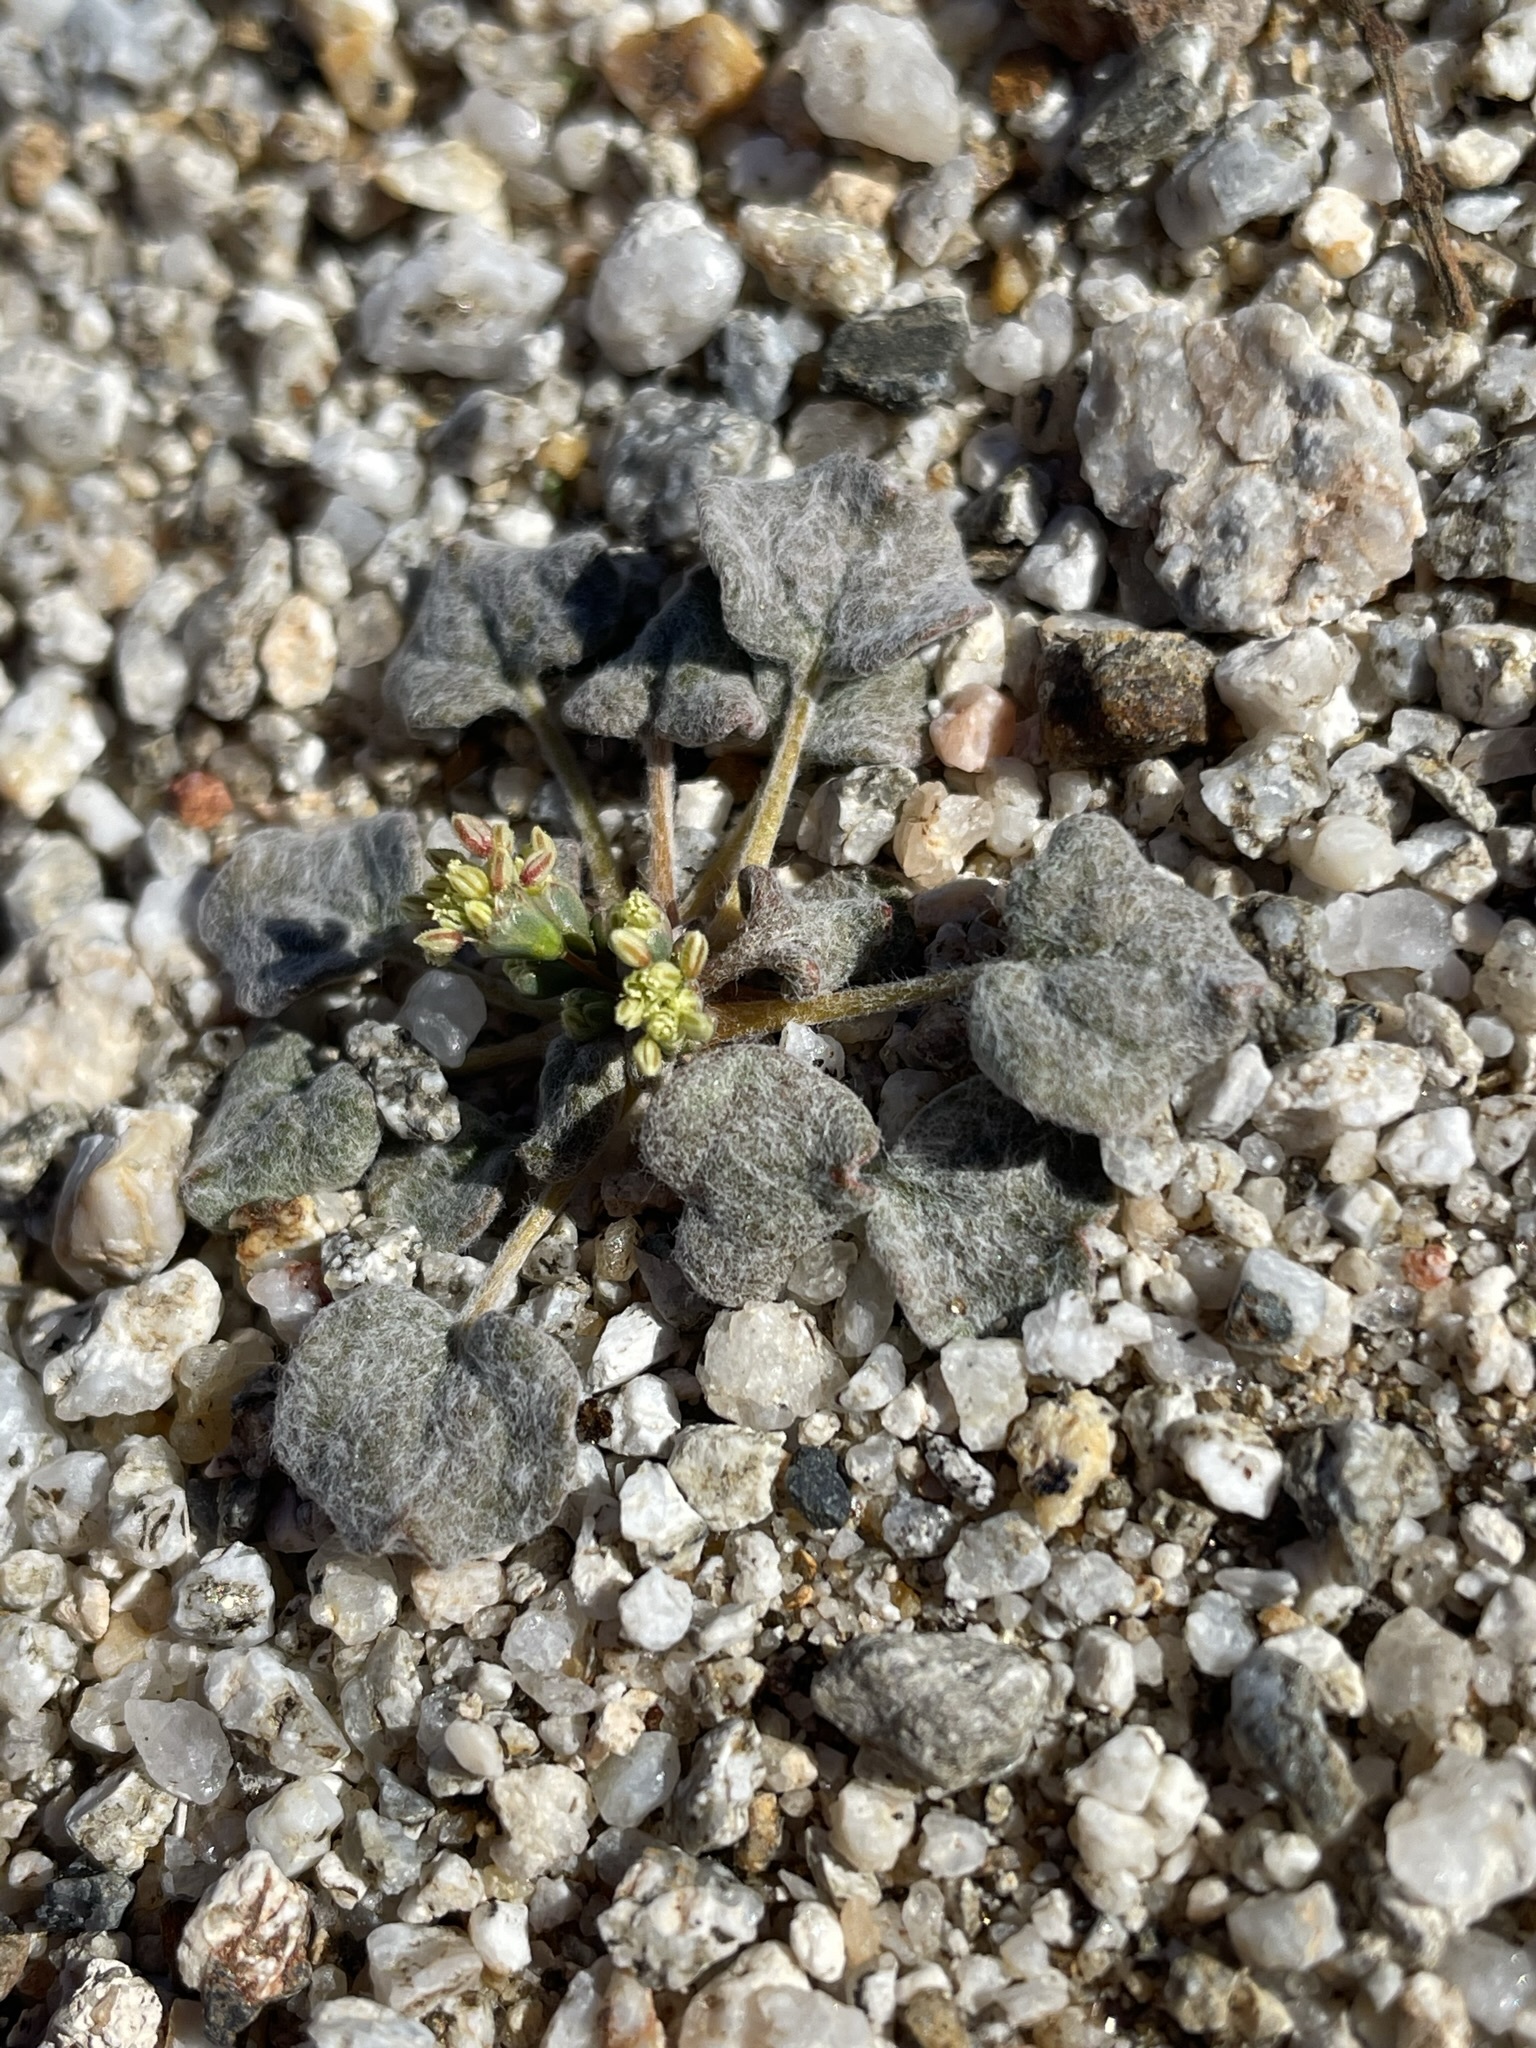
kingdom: Plantae
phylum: Tracheophyta
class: Magnoliopsida
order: Caryophyllales
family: Polygonaceae
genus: Eriogonum
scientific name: Eriogonum reniforme
